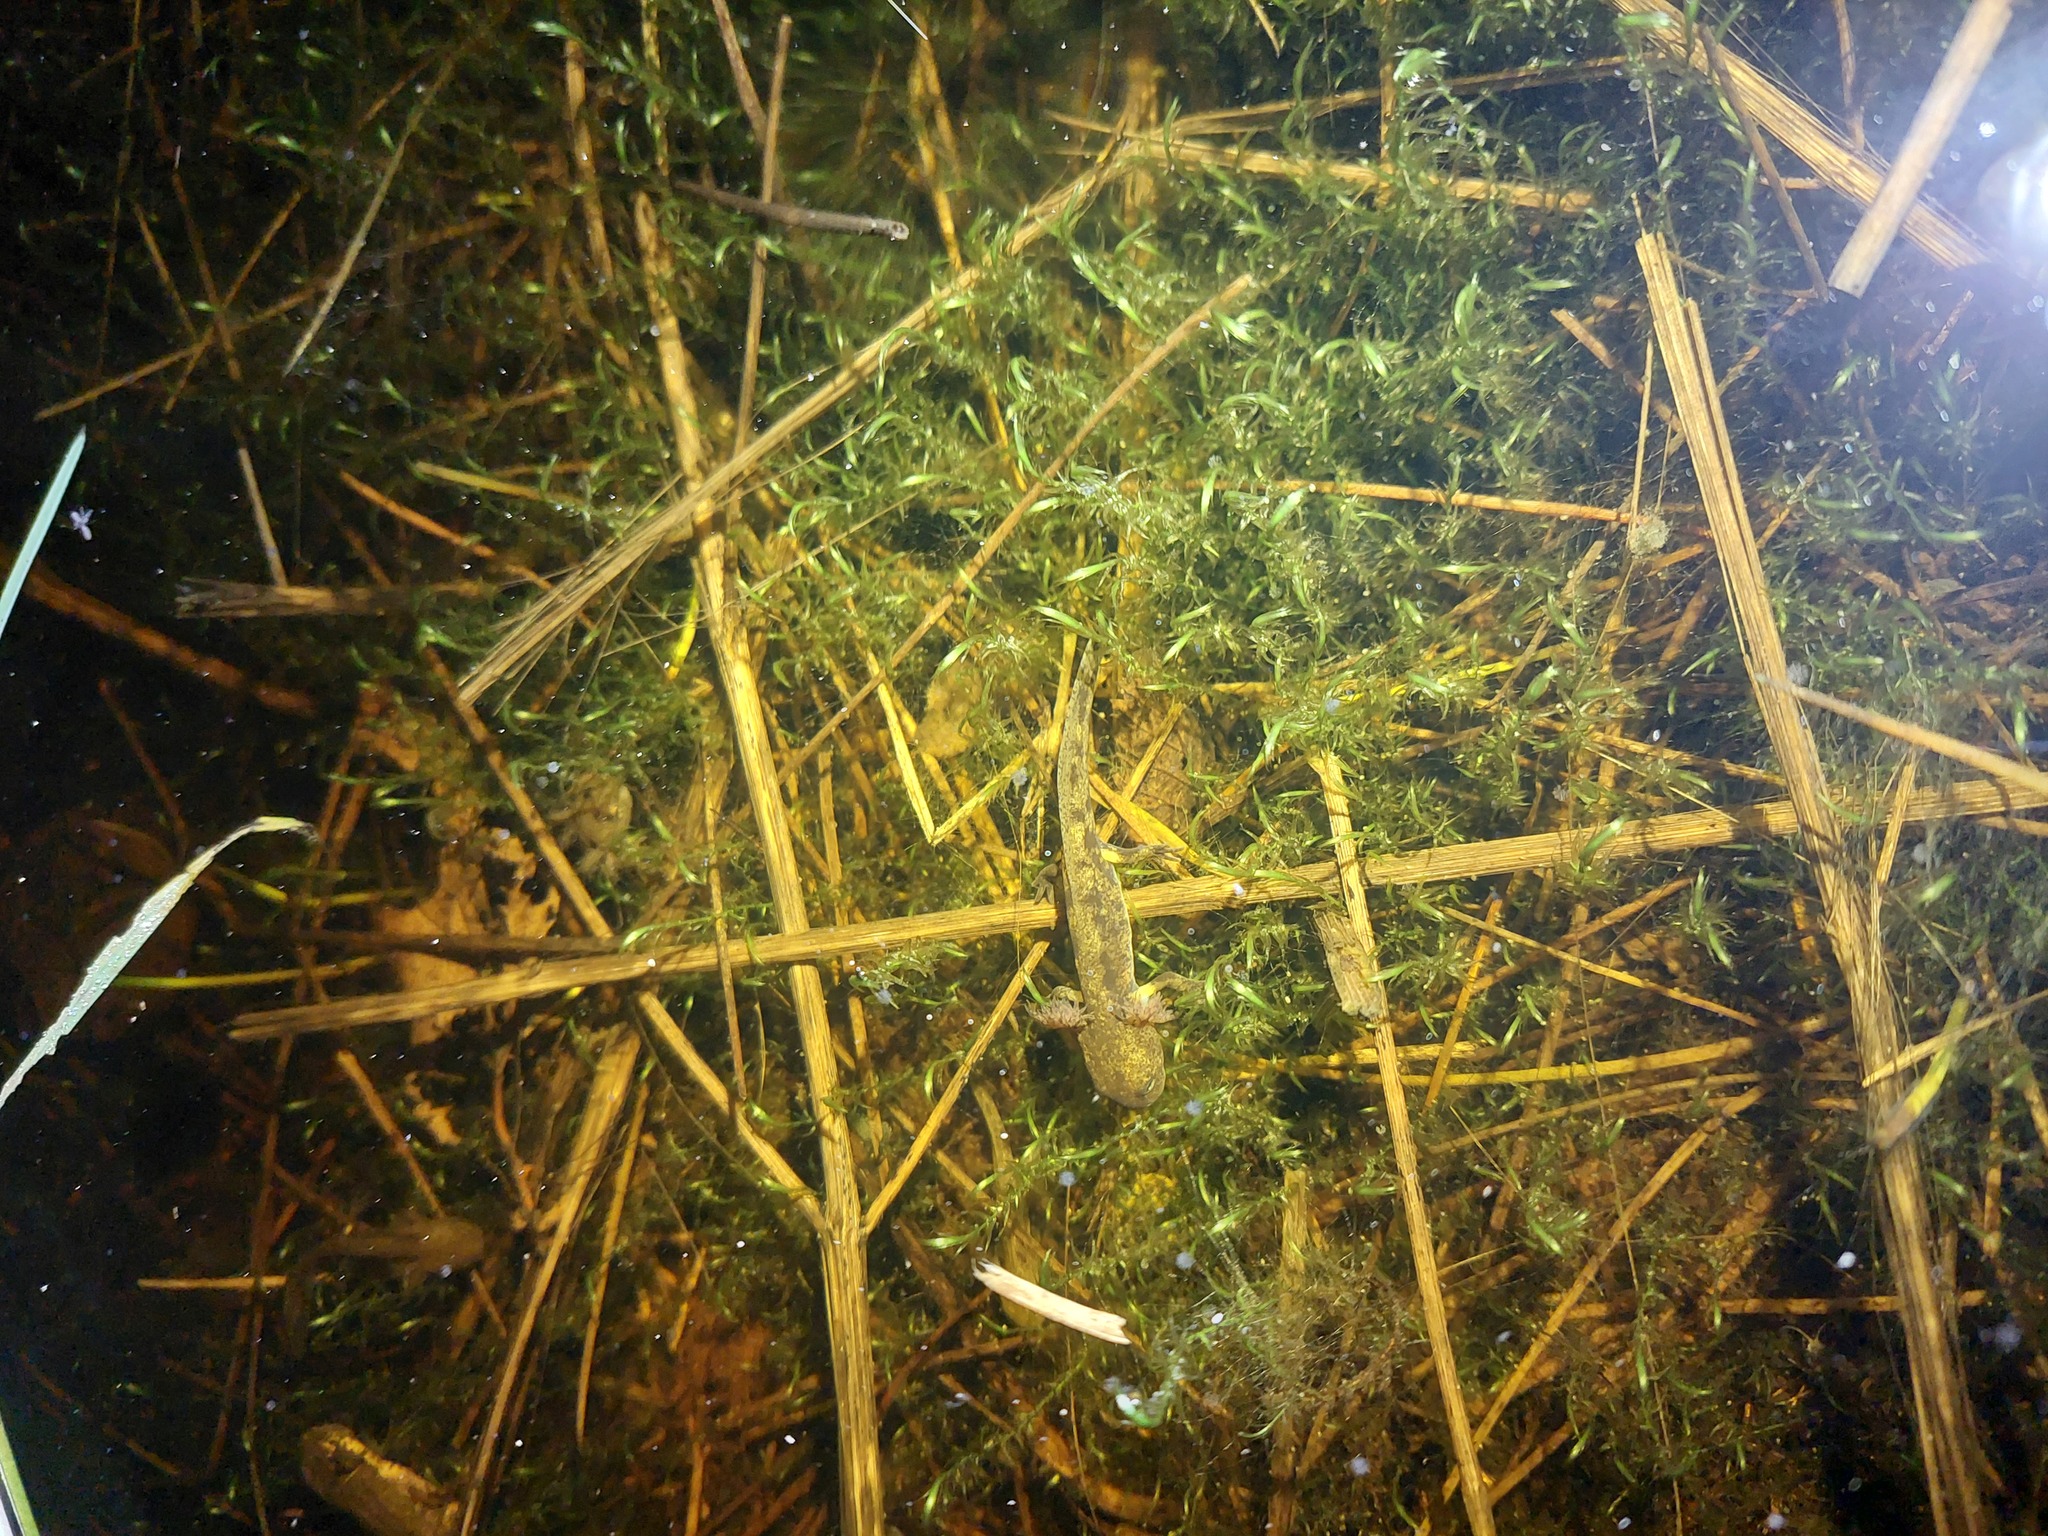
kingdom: Animalia
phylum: Chordata
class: Amphibia
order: Caudata
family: Salamandridae
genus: Salamandra
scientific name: Salamandra salamandra
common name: Fire salamander
